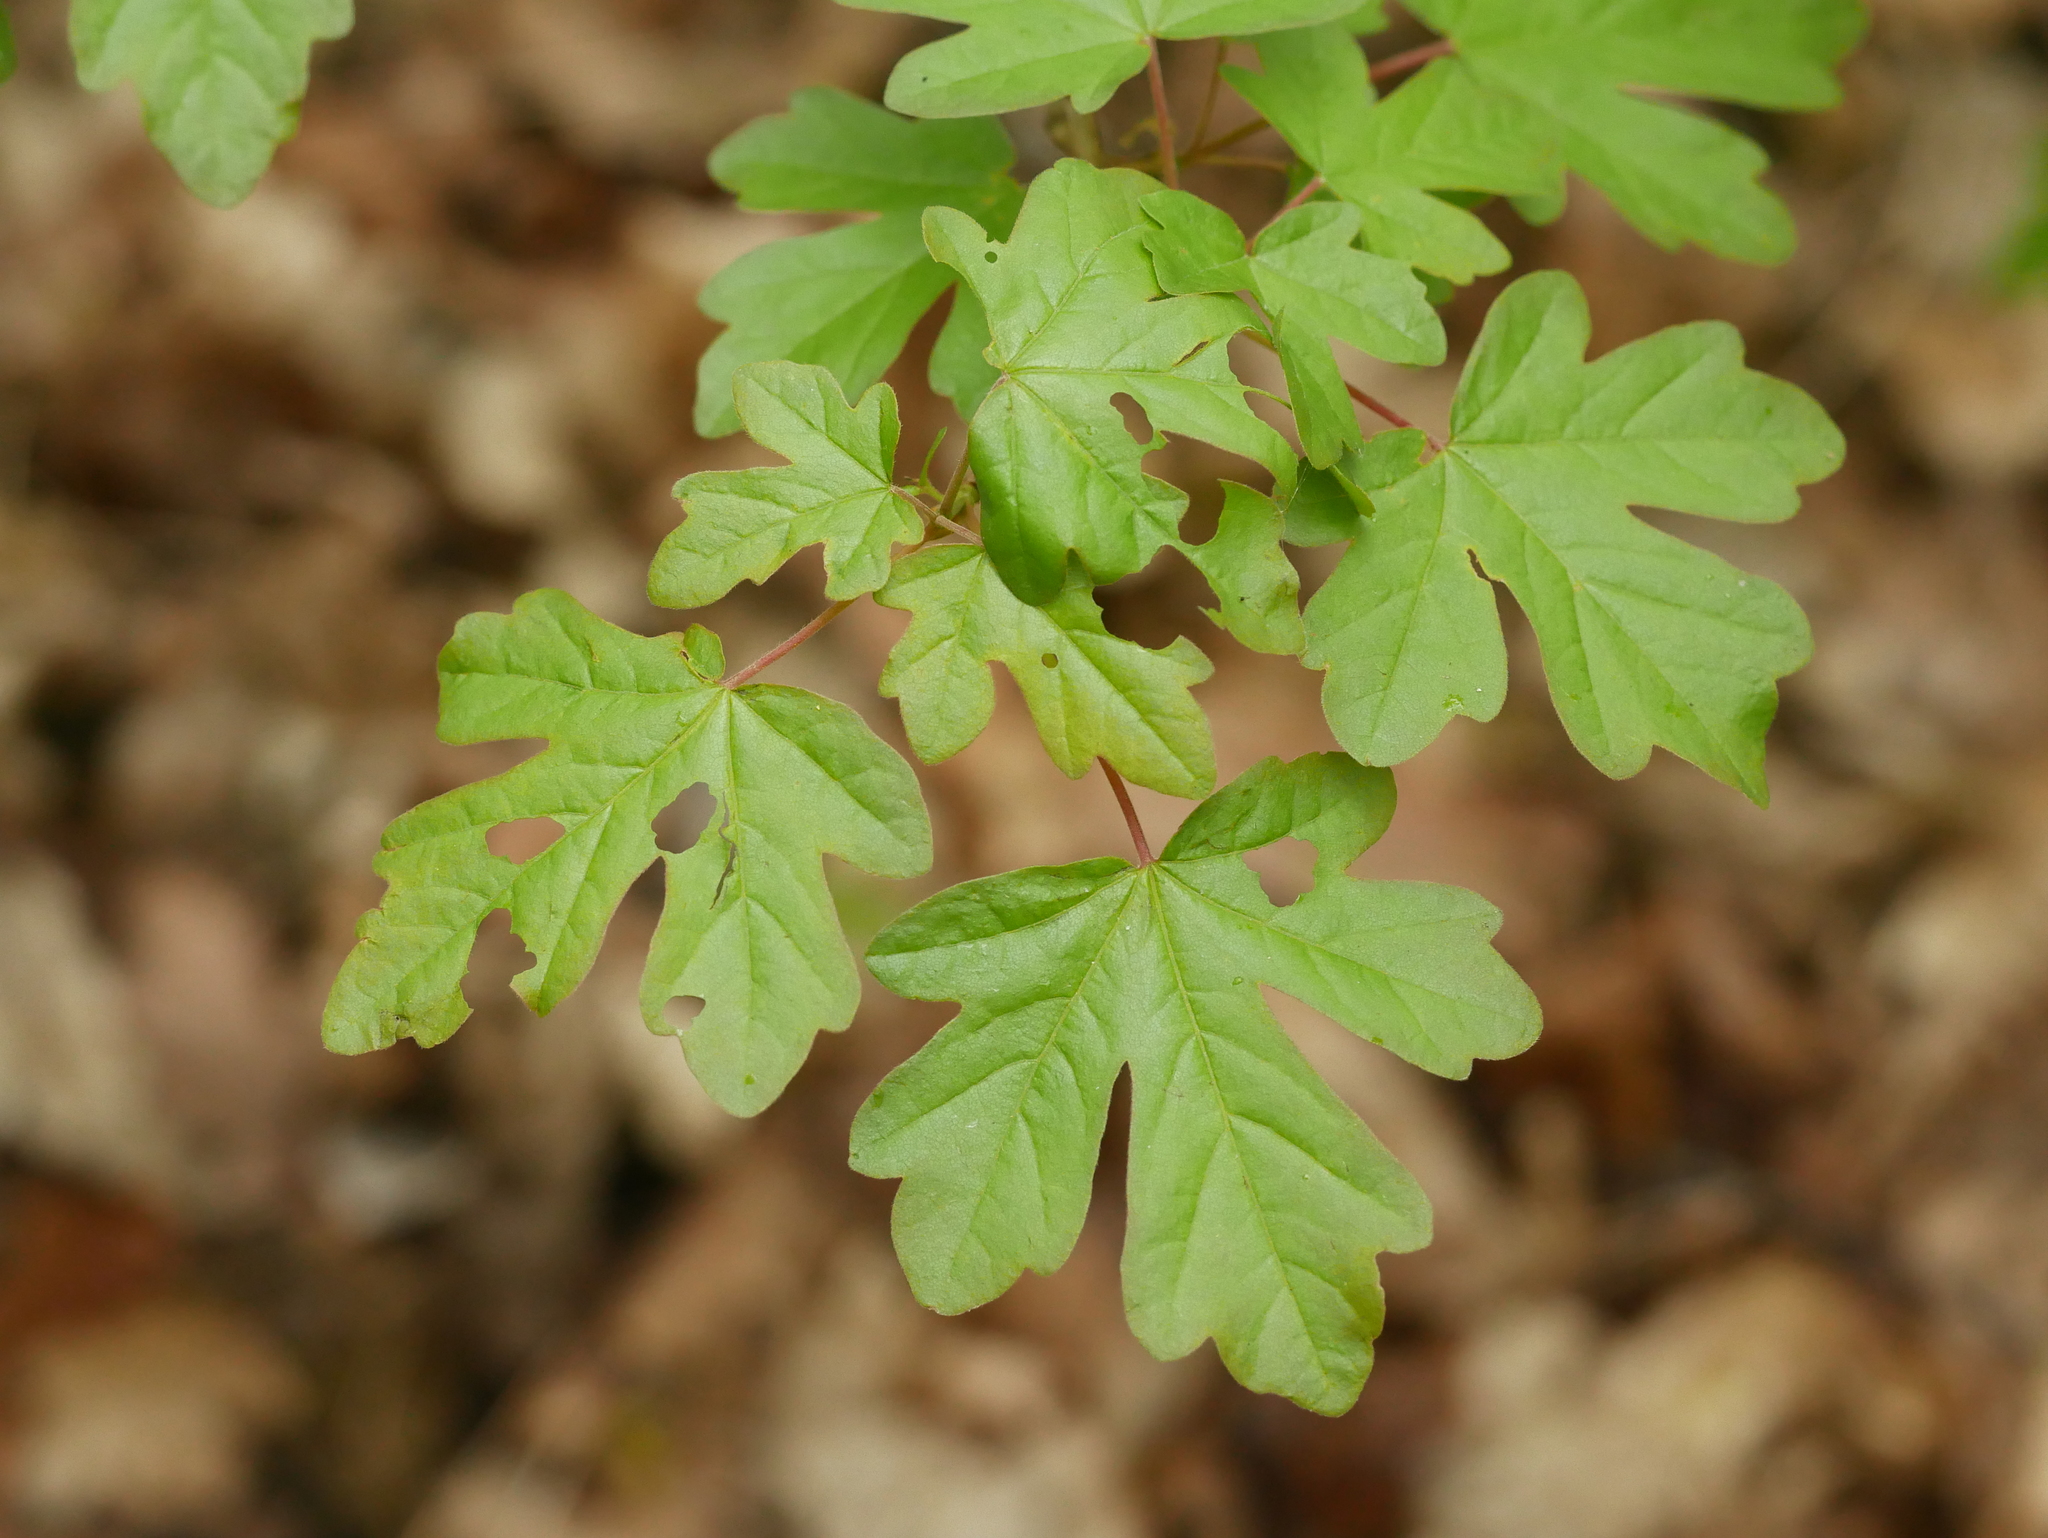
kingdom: Plantae
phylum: Tracheophyta
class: Magnoliopsida
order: Sapindales
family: Sapindaceae
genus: Acer
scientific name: Acer campestre
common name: Field maple
